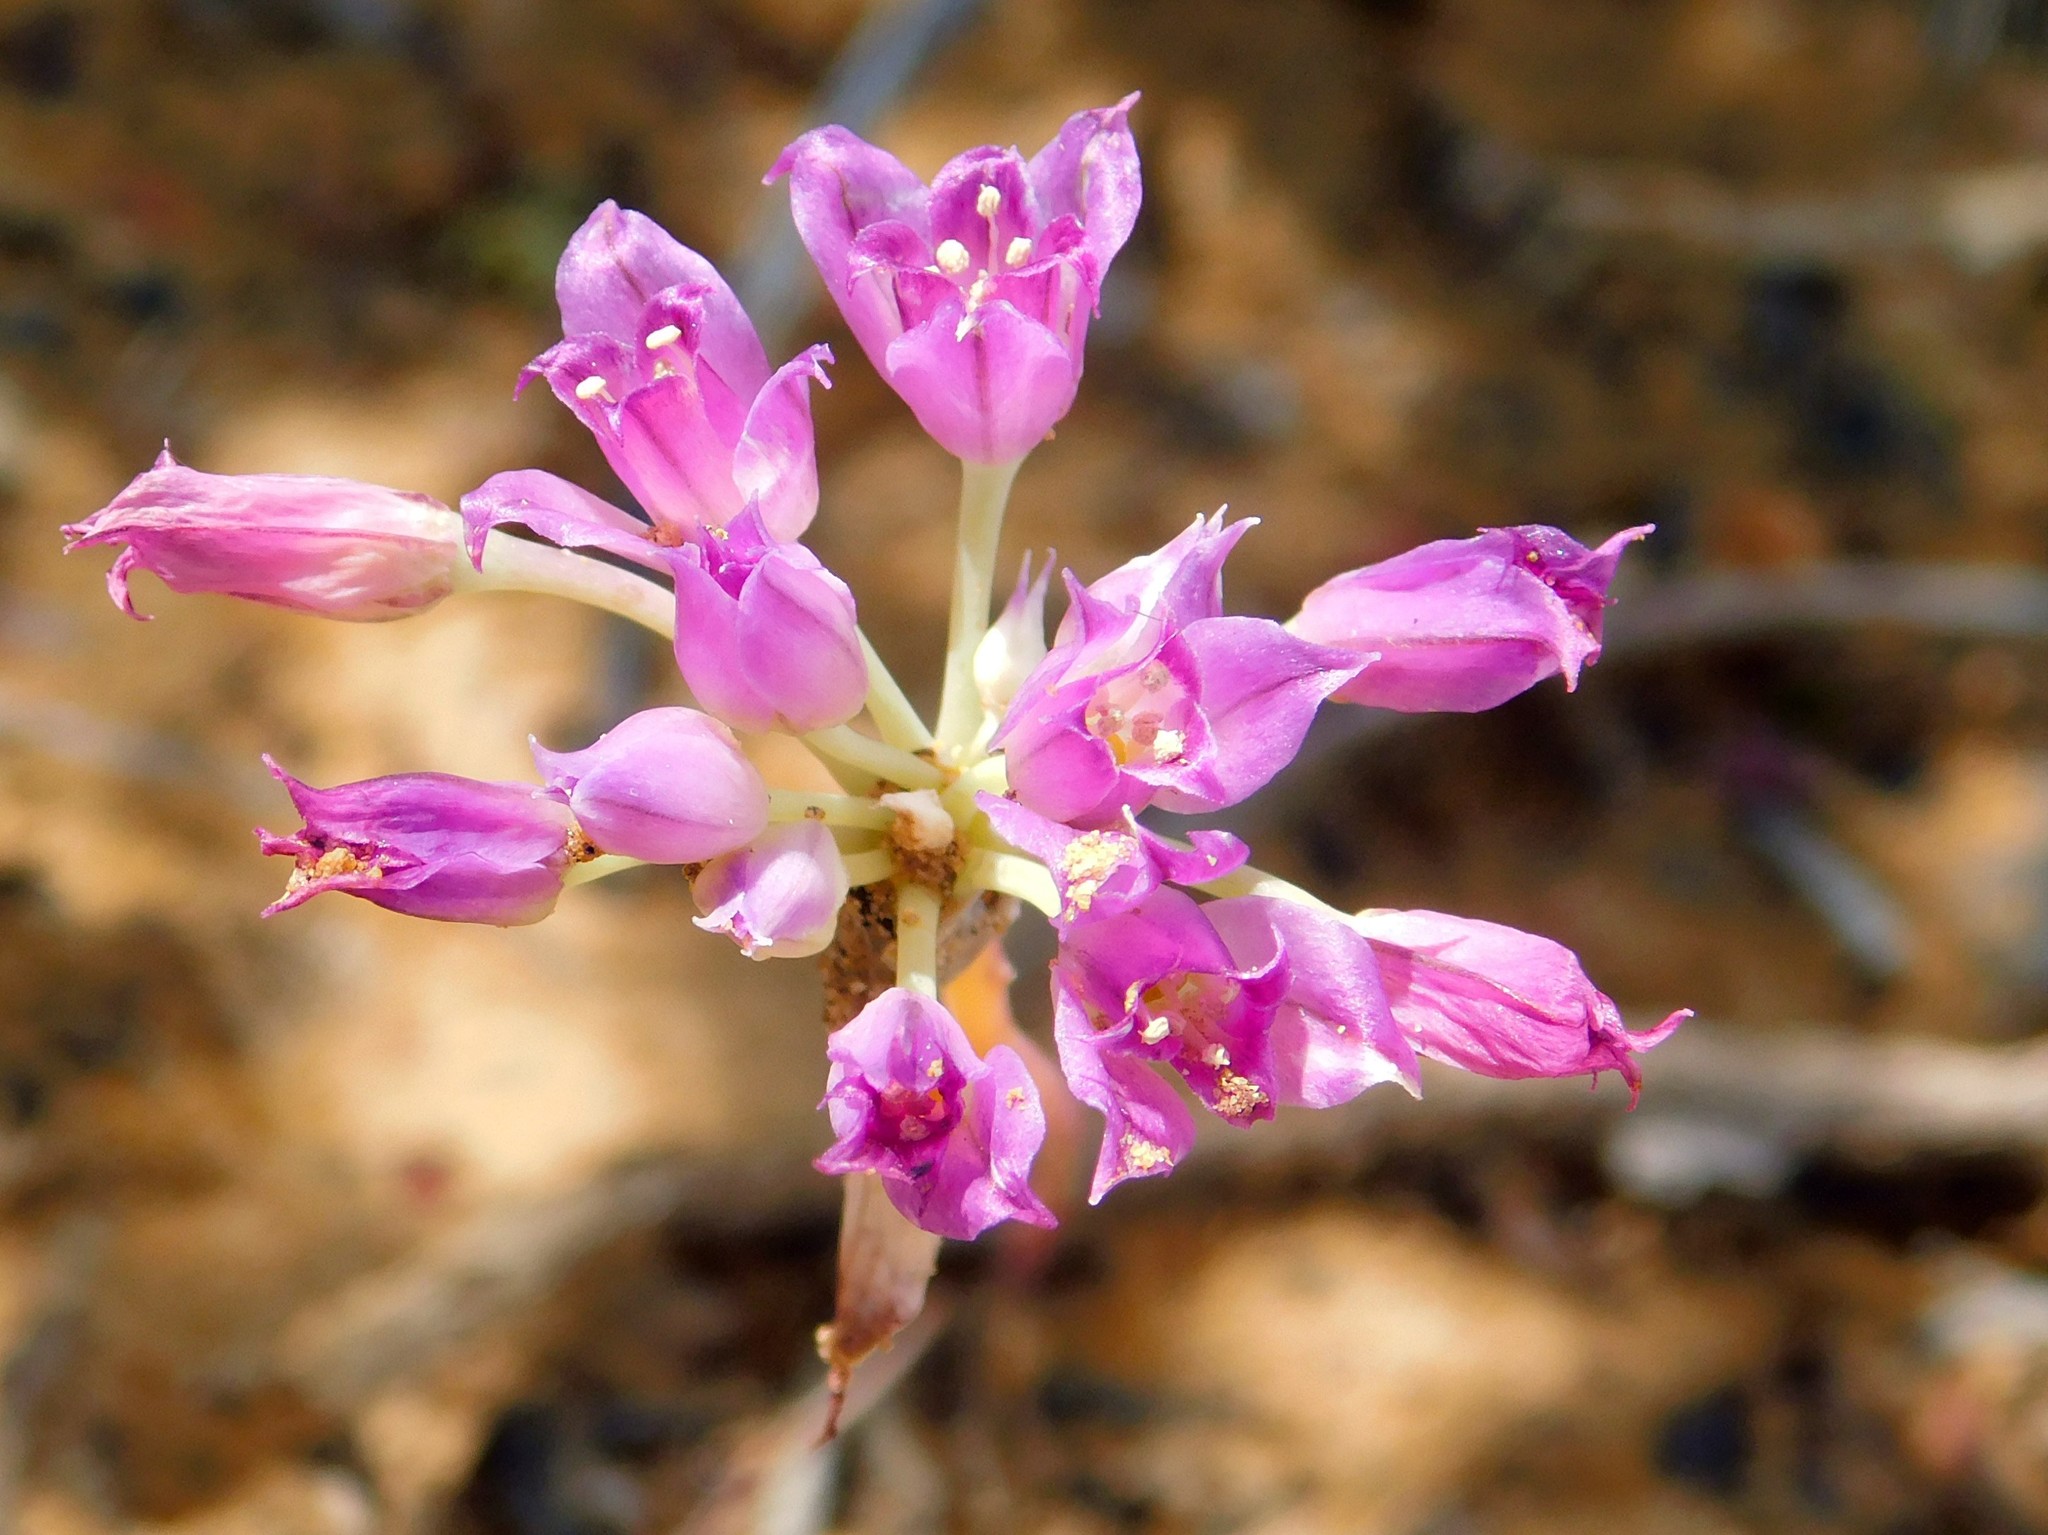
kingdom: Plantae
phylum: Tracheophyta
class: Liliopsida
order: Asparagales
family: Amaryllidaceae
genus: Allium
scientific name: Allium acuminatum
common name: Hooker's onion
